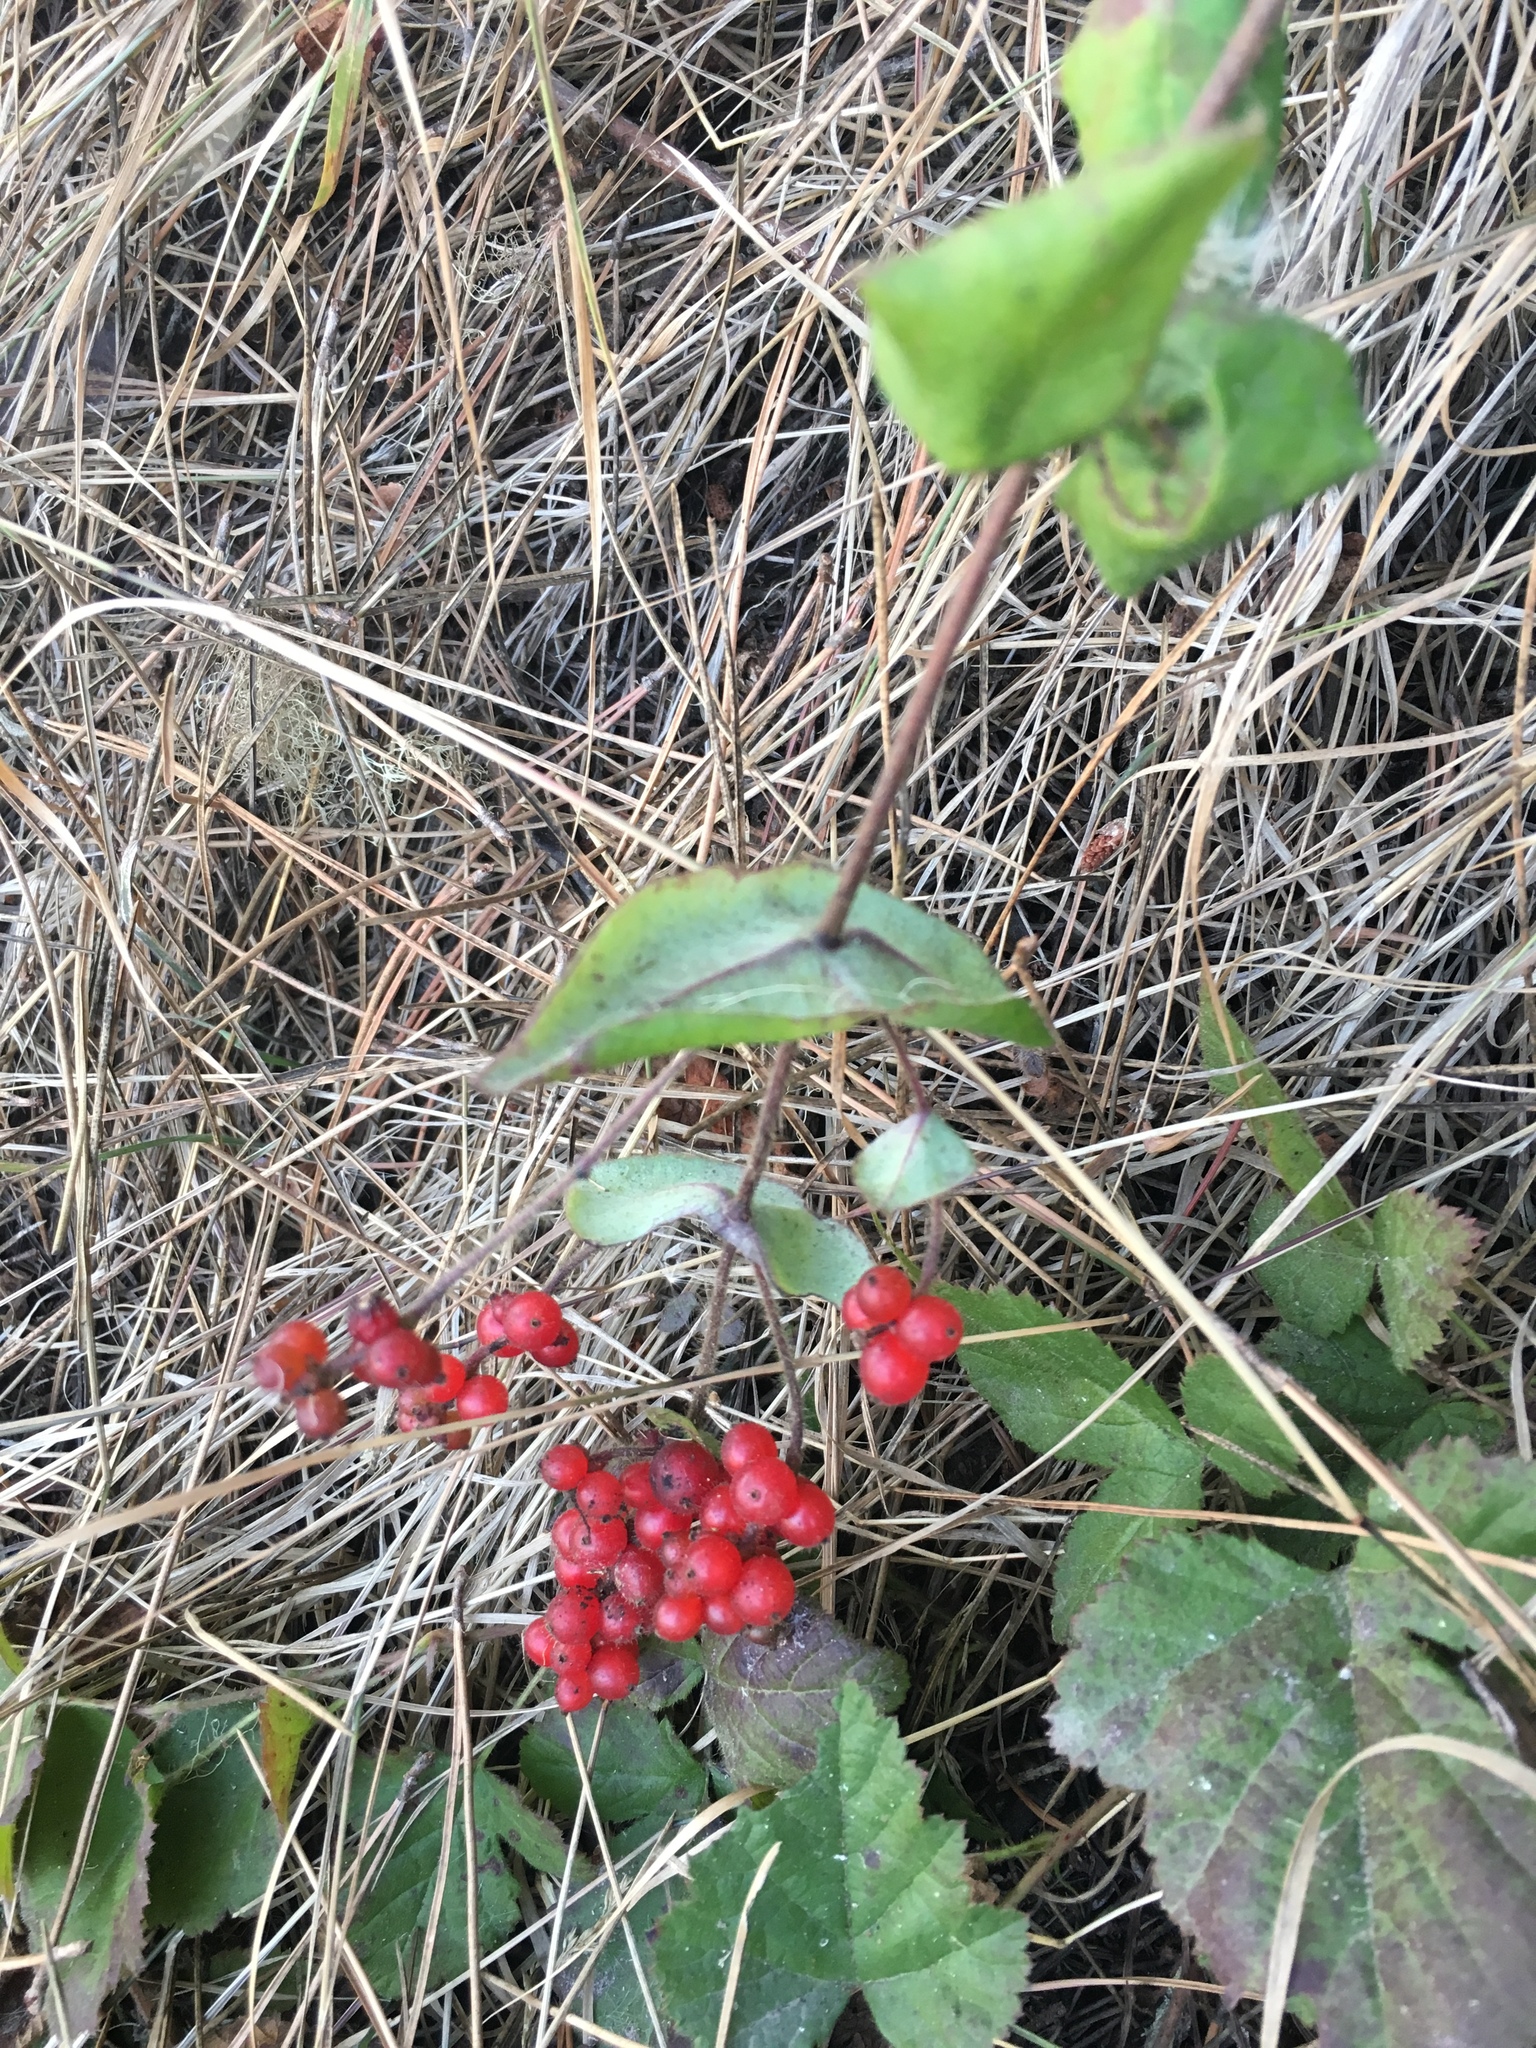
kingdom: Plantae
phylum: Tracheophyta
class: Magnoliopsida
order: Dipsacales
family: Caprifoliaceae
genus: Lonicera
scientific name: Lonicera hispidula
